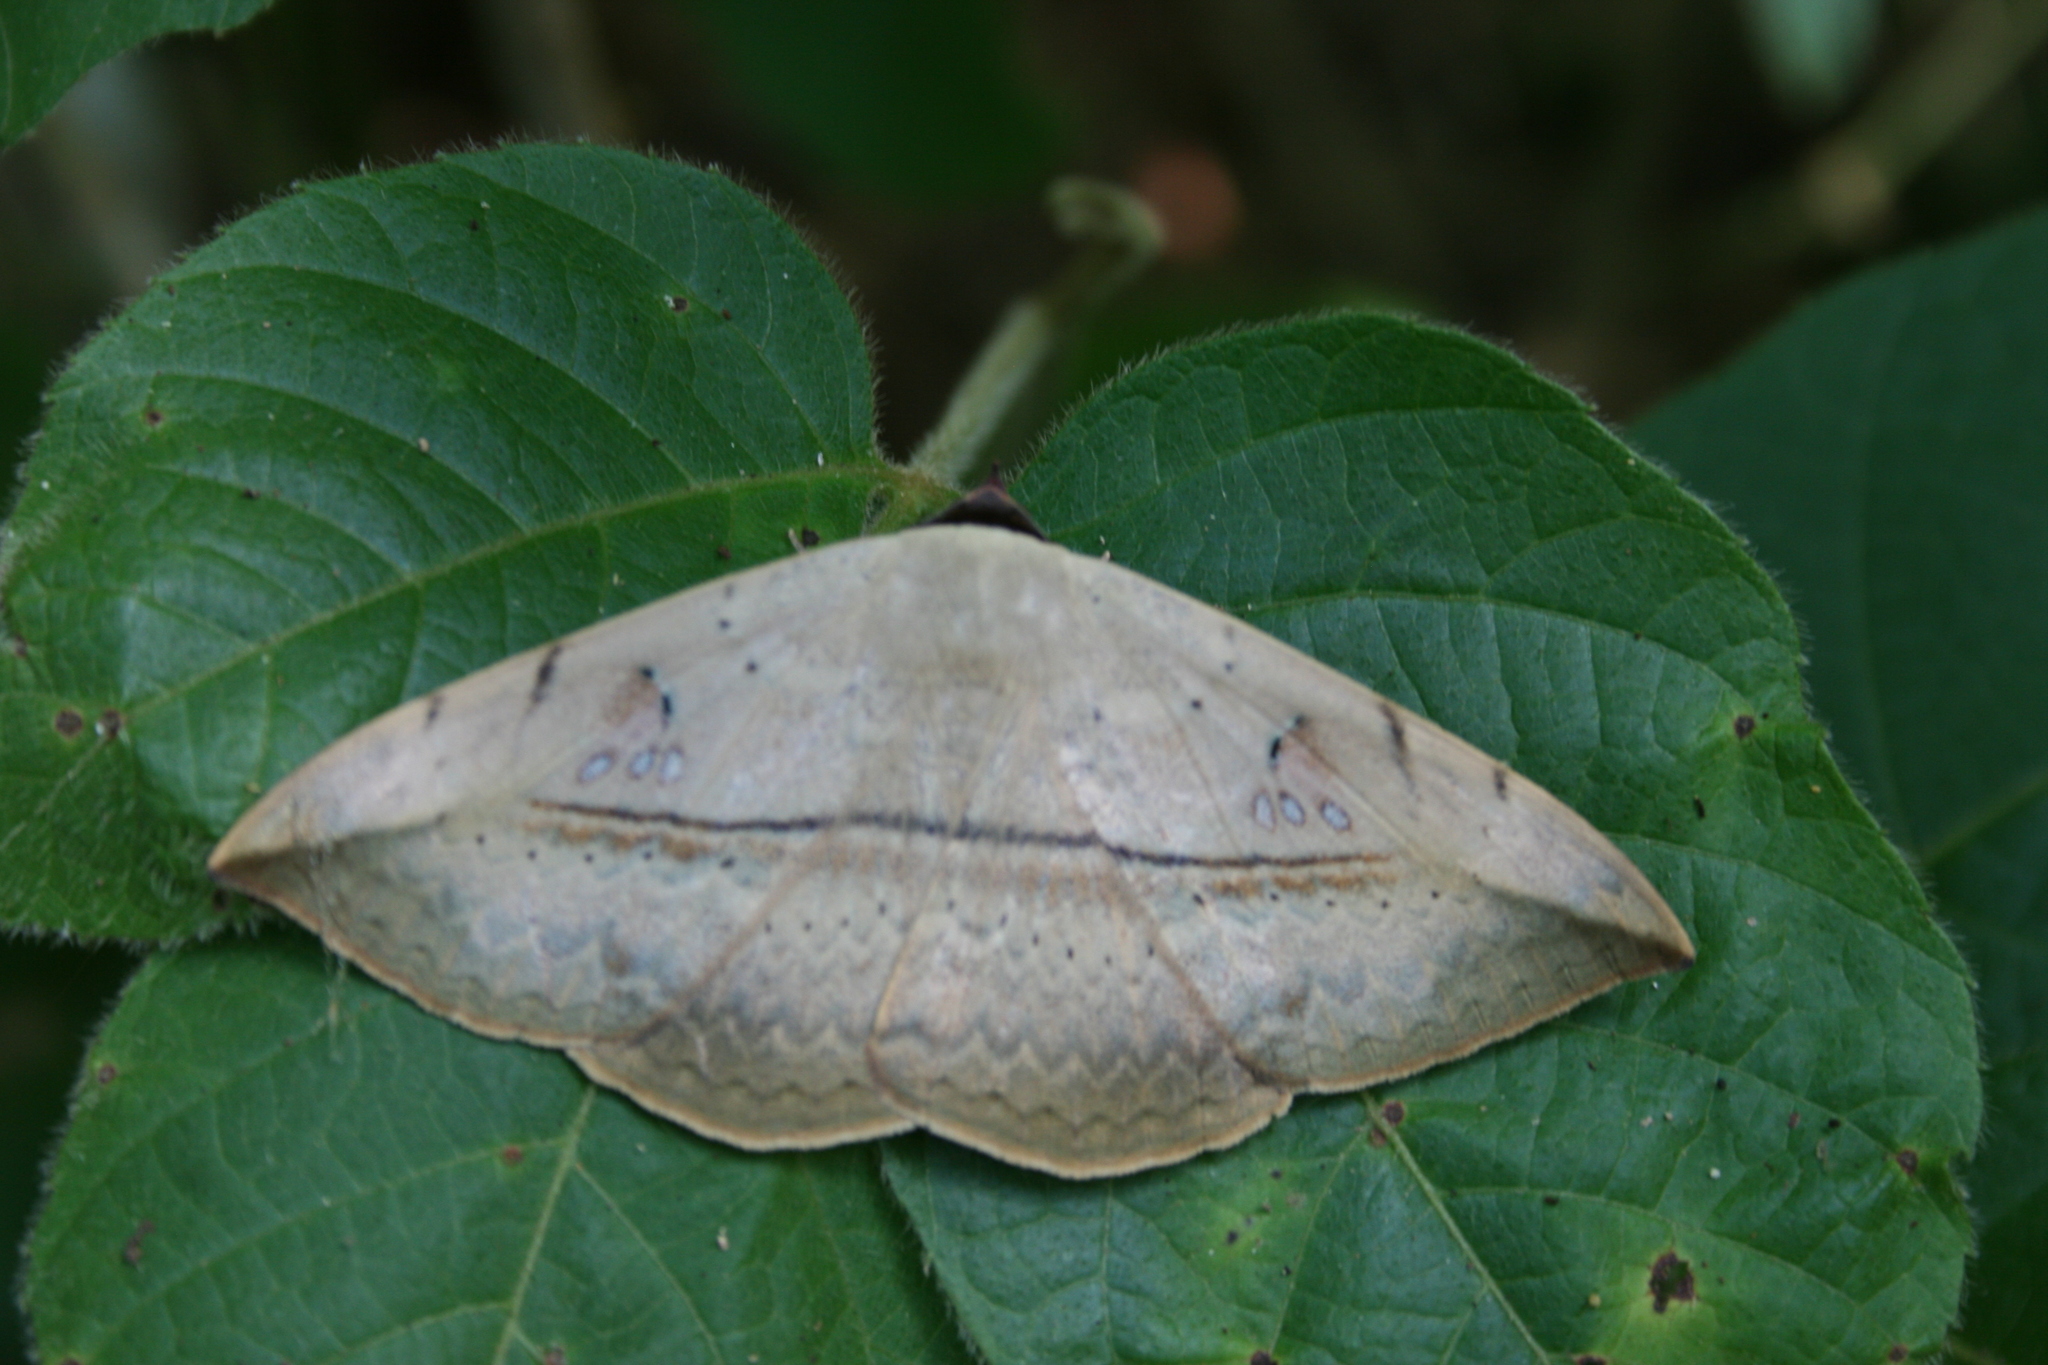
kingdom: Animalia
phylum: Arthropoda
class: Insecta
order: Lepidoptera
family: Erebidae
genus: Hypopyra
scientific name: Hypopyra vespertilio
